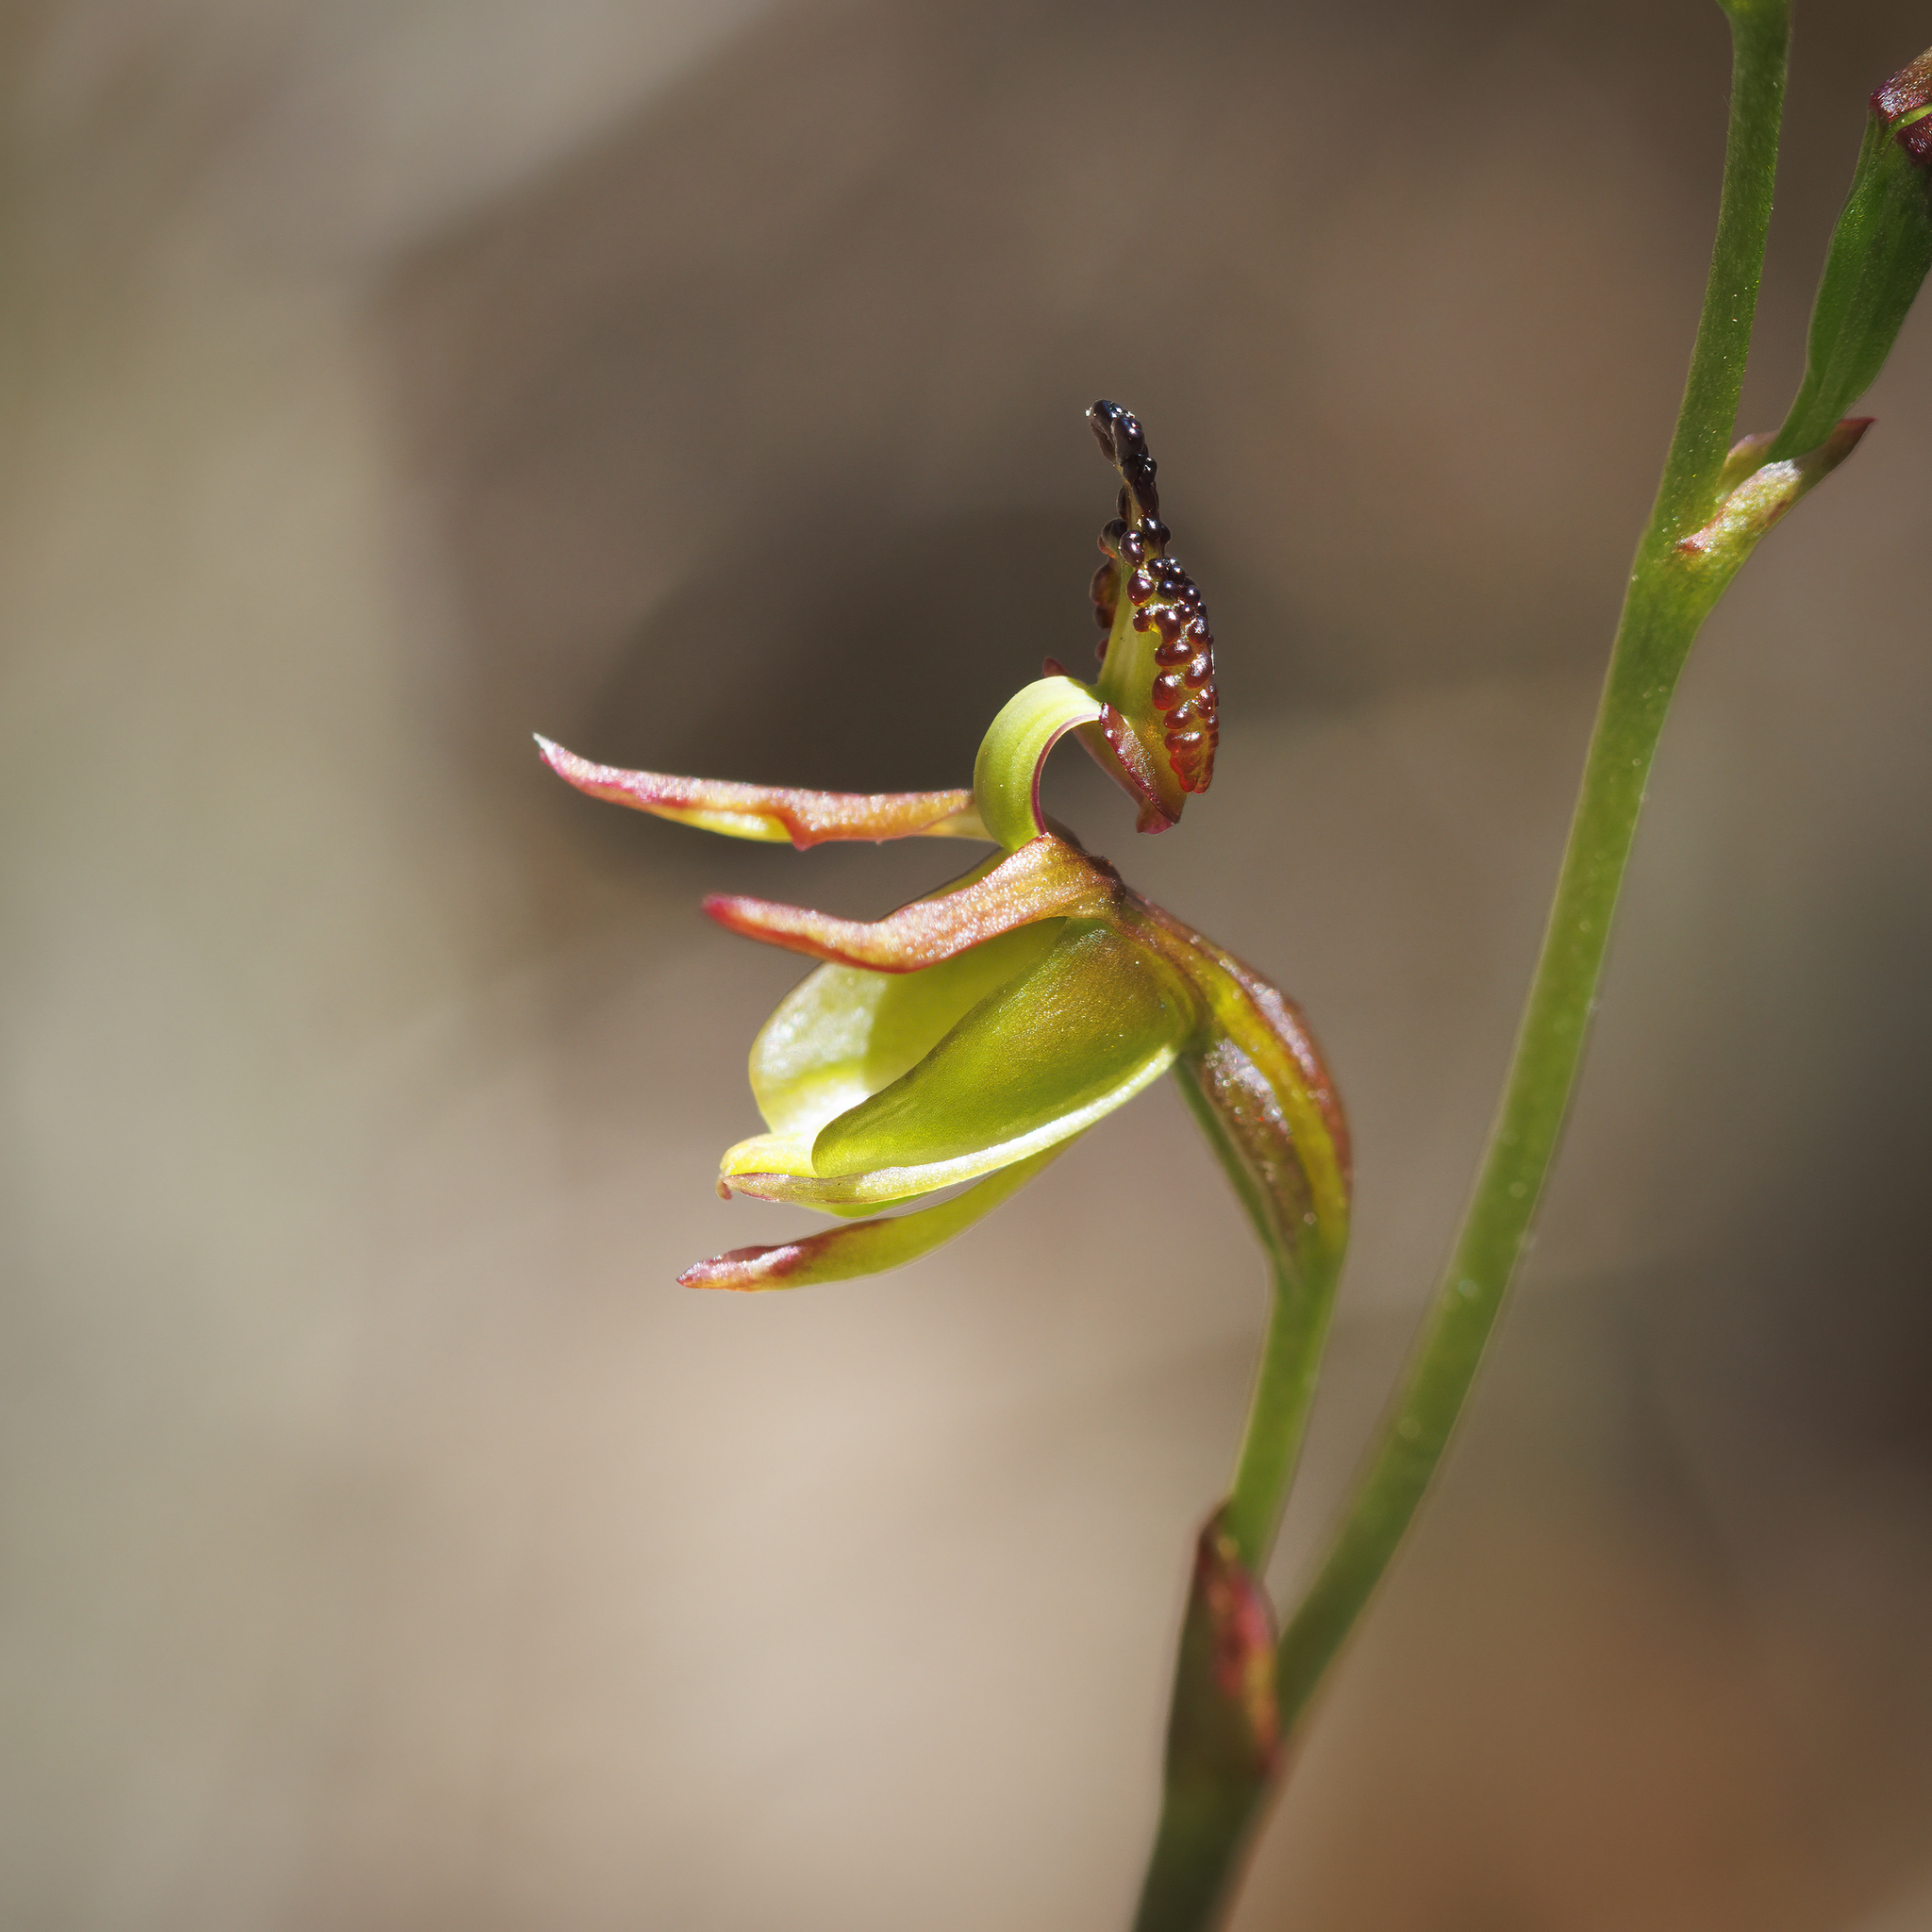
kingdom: Plantae
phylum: Tracheophyta
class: Liliopsida
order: Asparagales
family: Orchidaceae
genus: Caleana
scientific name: Caleana minor
